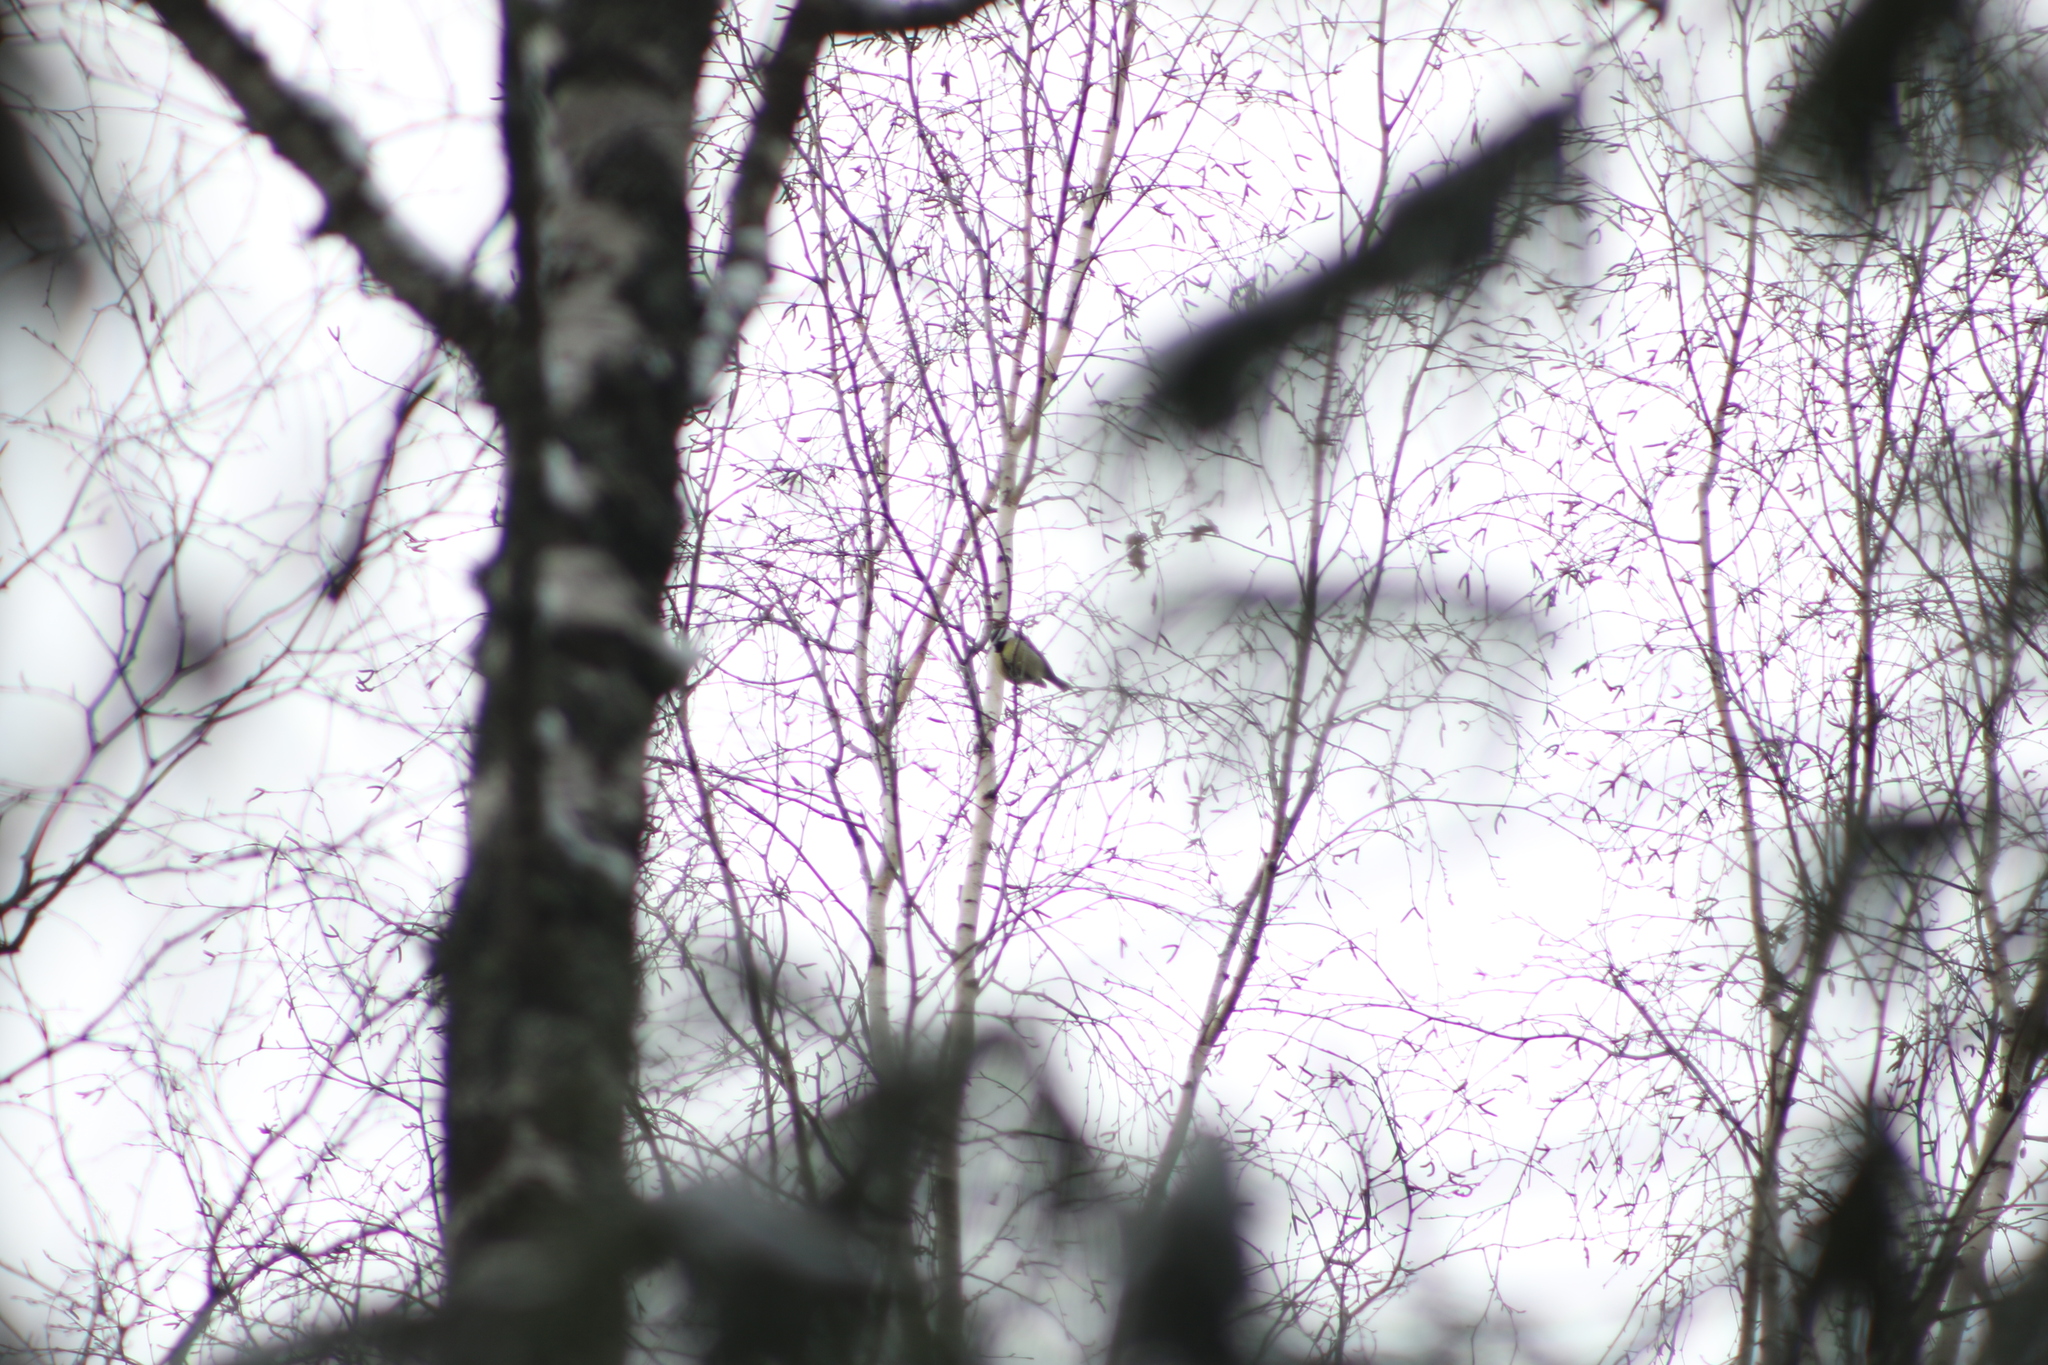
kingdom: Animalia
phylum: Chordata
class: Aves
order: Passeriformes
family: Paridae
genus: Parus
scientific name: Parus major
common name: Great tit
